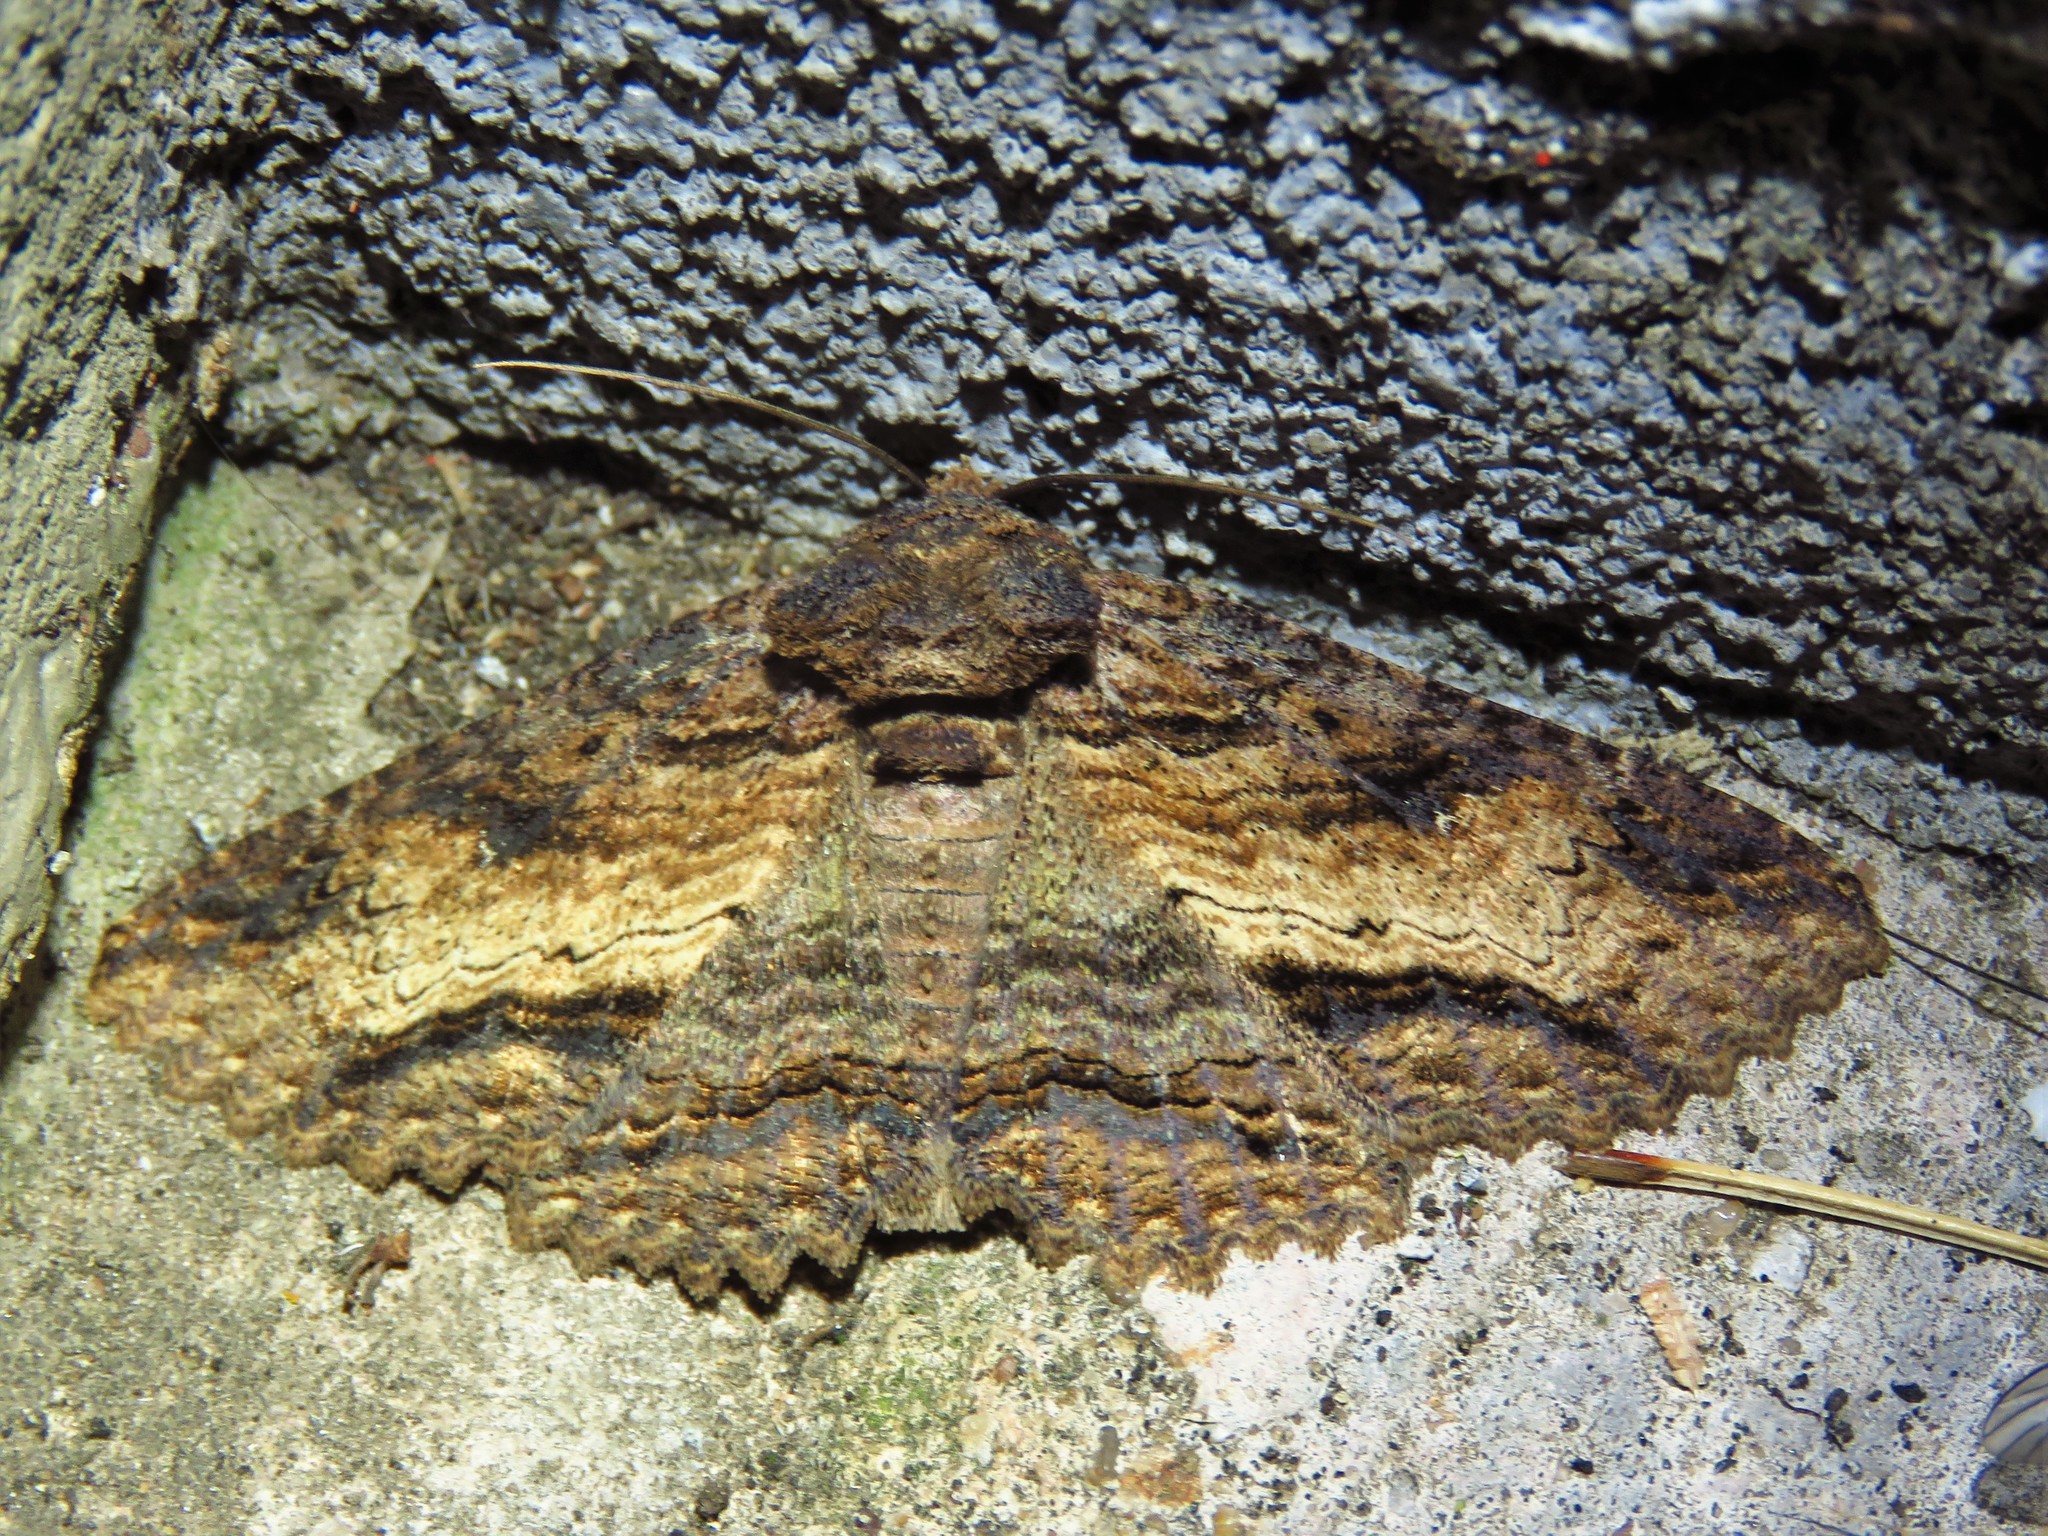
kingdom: Animalia
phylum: Arthropoda
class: Insecta
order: Lepidoptera
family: Erebidae
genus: Zale
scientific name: Zale lunata
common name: Lunate zale moth
